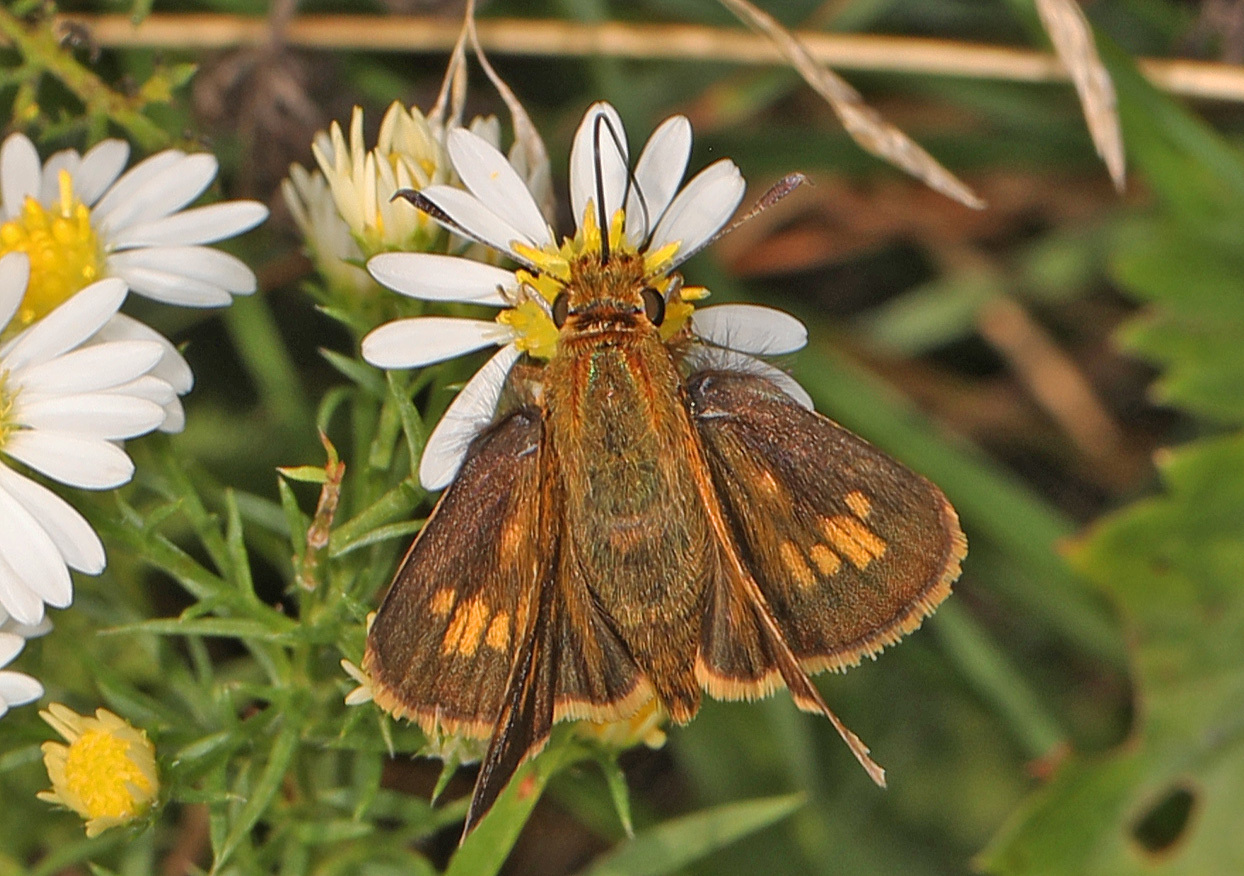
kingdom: Animalia
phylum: Arthropoda
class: Insecta
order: Lepidoptera
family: Hesperiidae
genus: Polites
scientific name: Polites coras
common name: Peck's skipper
